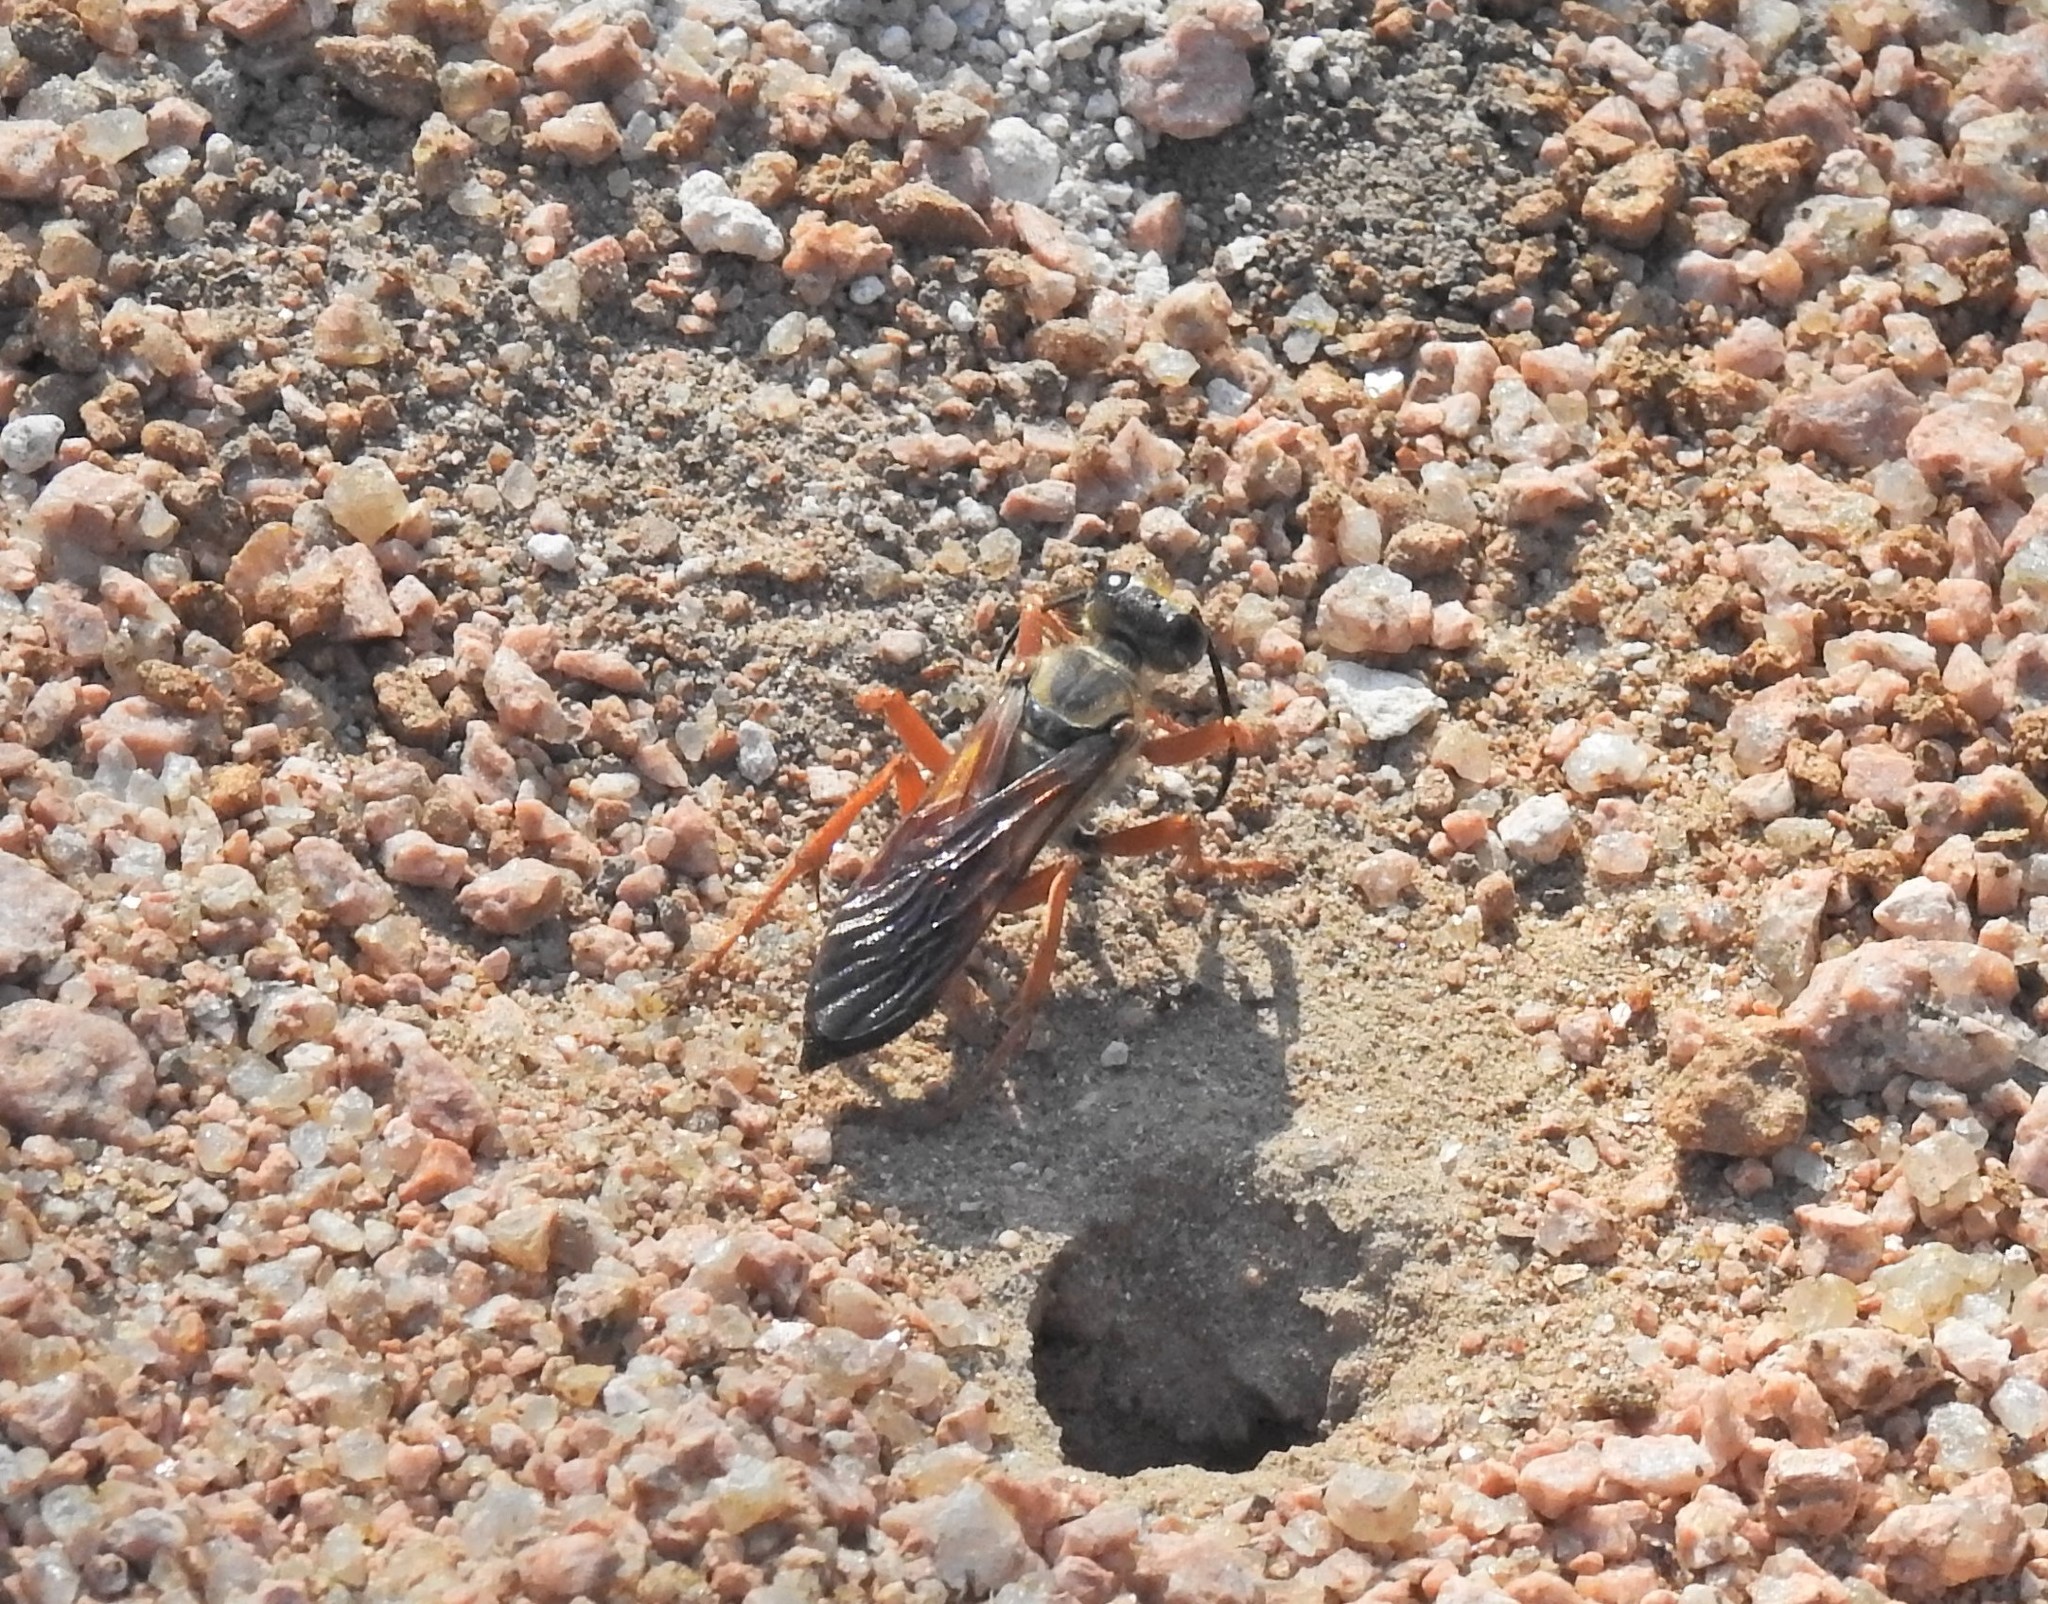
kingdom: Animalia
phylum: Arthropoda
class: Insecta
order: Hymenoptera
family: Sphecidae
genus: Sphex
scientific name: Sphex ichneumoneus
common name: Great golden digger wasp
